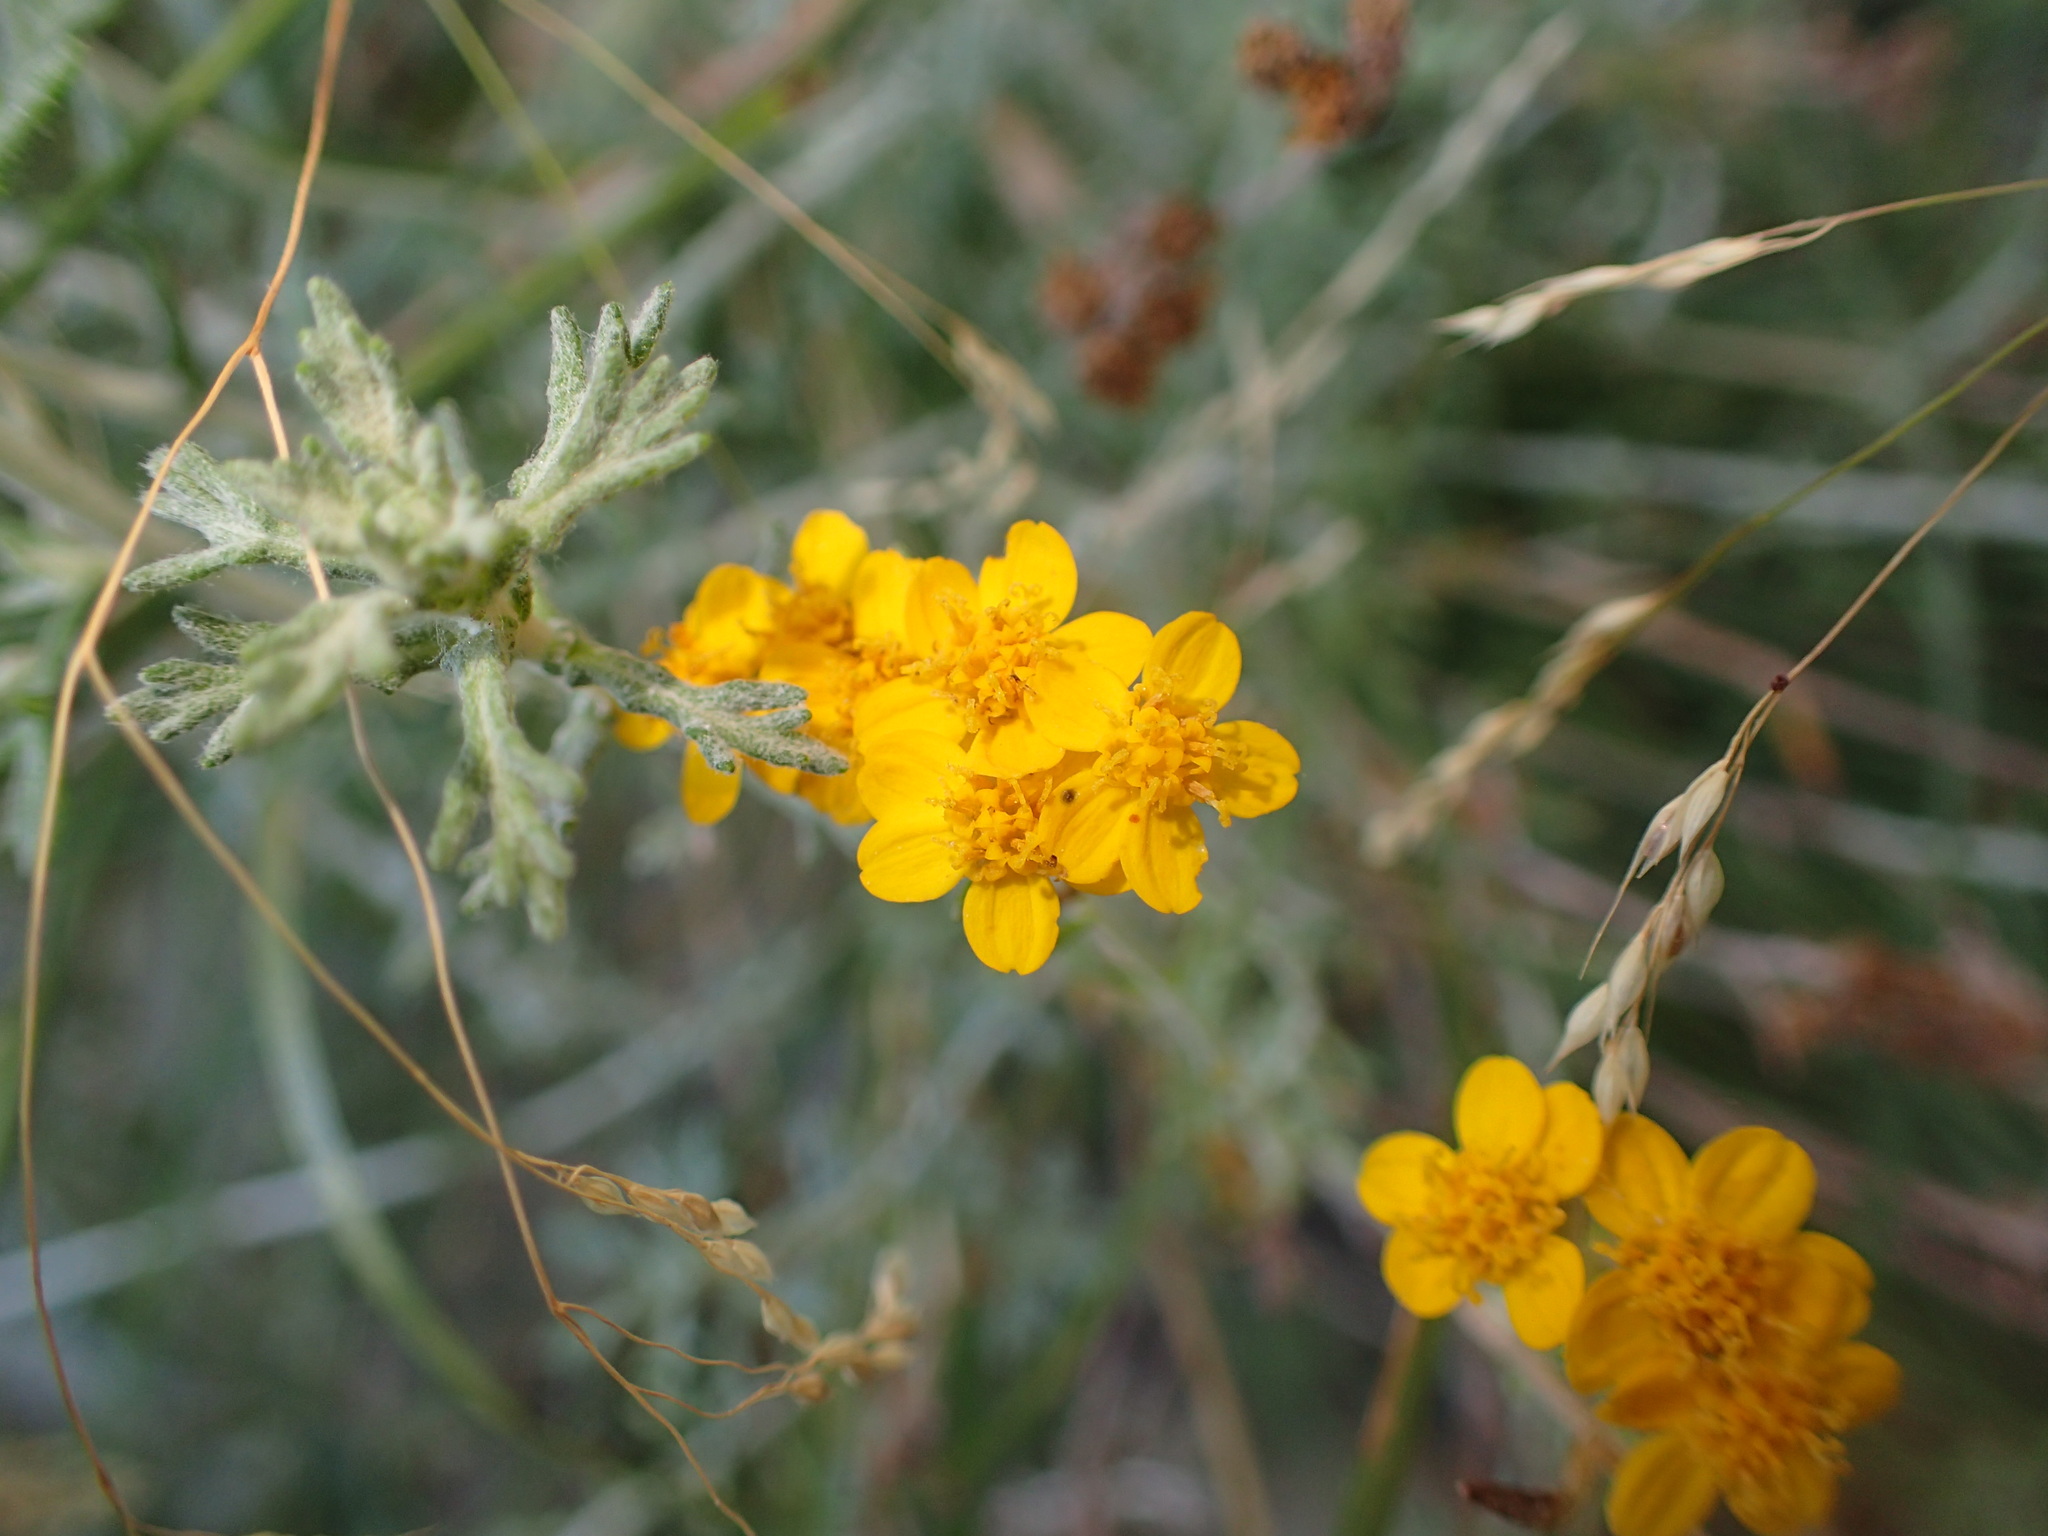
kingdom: Plantae
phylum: Tracheophyta
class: Magnoliopsida
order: Asterales
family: Asteraceae
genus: Eriophyllum
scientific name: Eriophyllum confertiflorum
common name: Golden-yarrow
